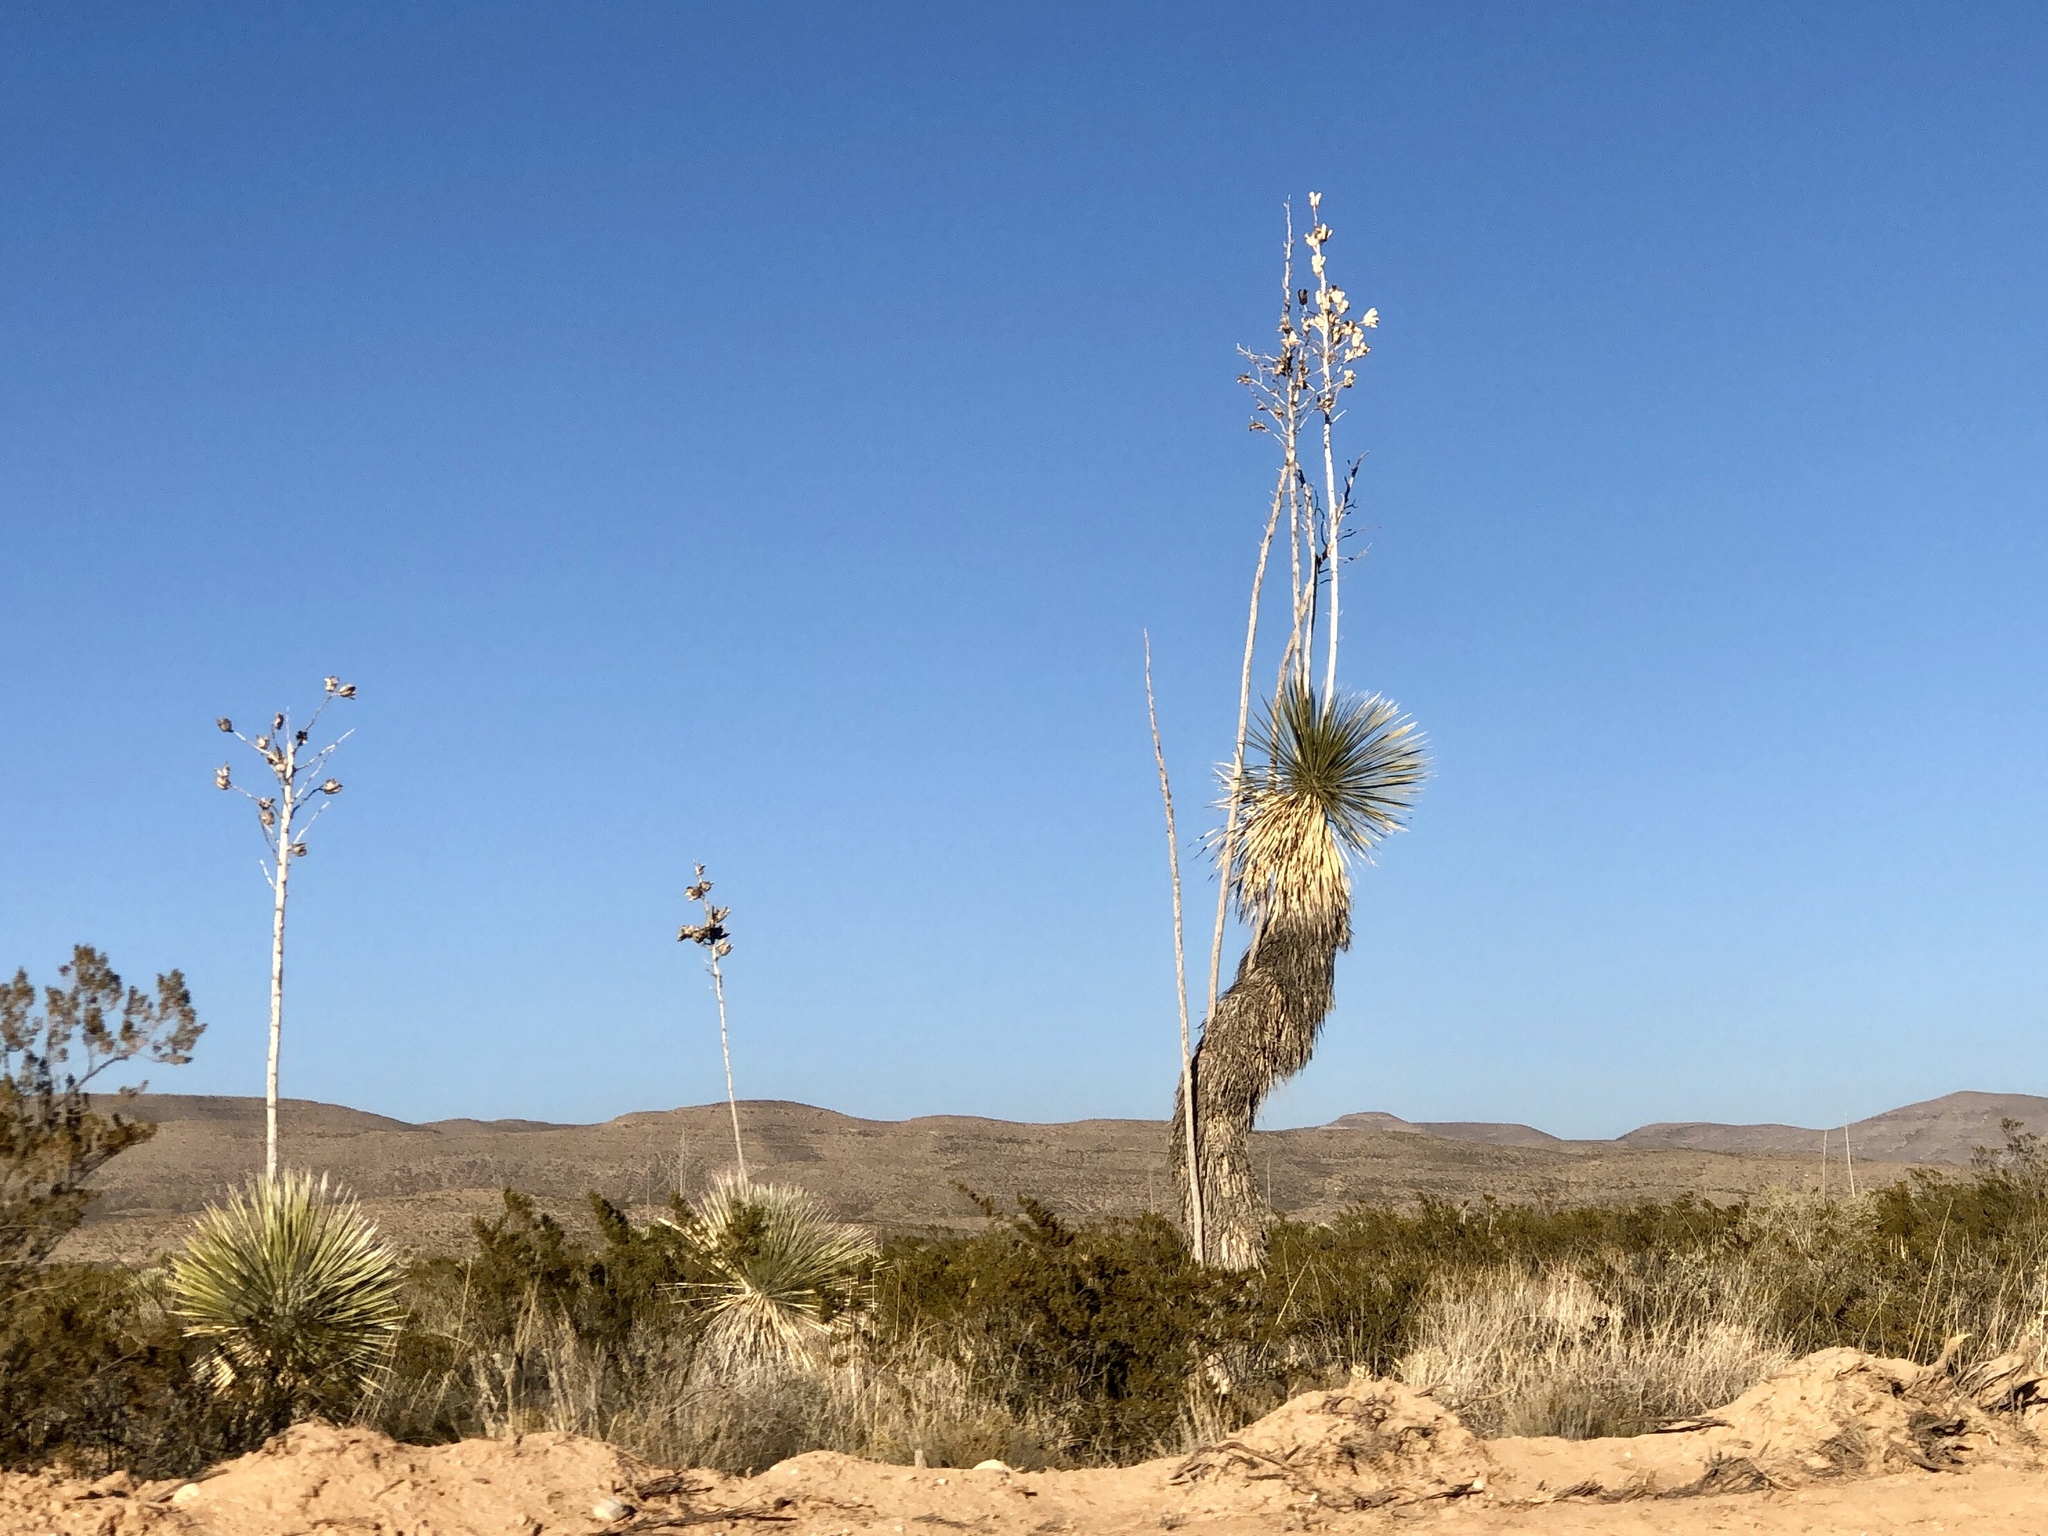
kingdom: Plantae
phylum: Tracheophyta
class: Liliopsida
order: Asparagales
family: Asparagaceae
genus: Yucca
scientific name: Yucca elata
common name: Palmella
